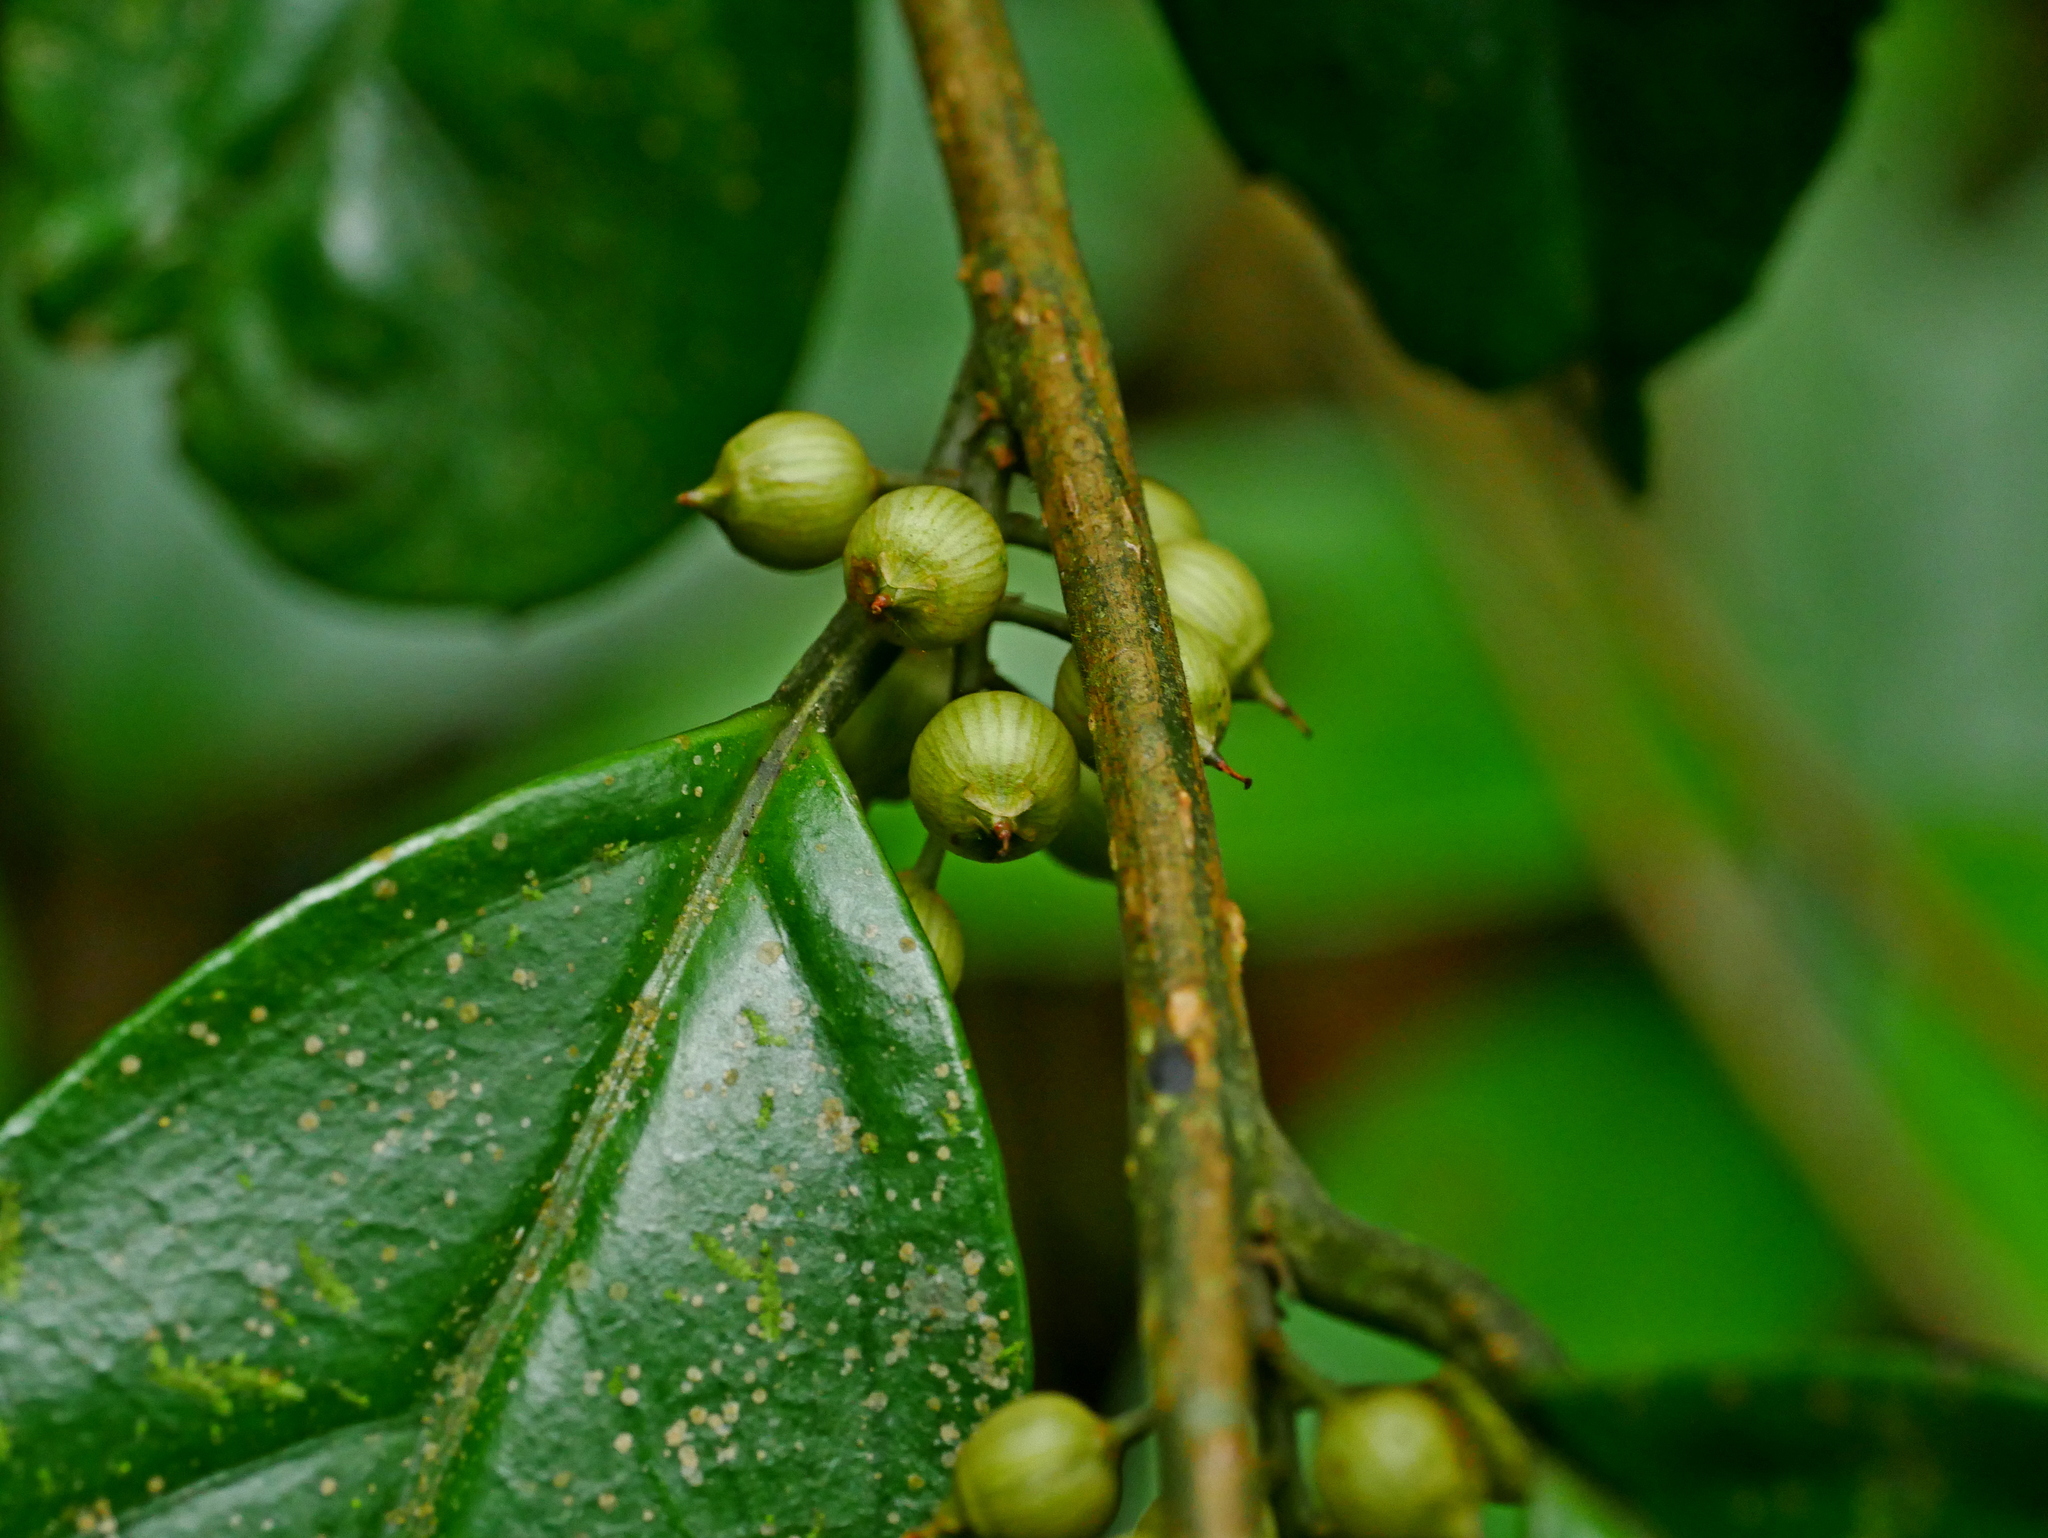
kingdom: Plantae
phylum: Tracheophyta
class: Magnoliopsida
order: Ericales
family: Primulaceae
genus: Maesa
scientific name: Maesa japonica
